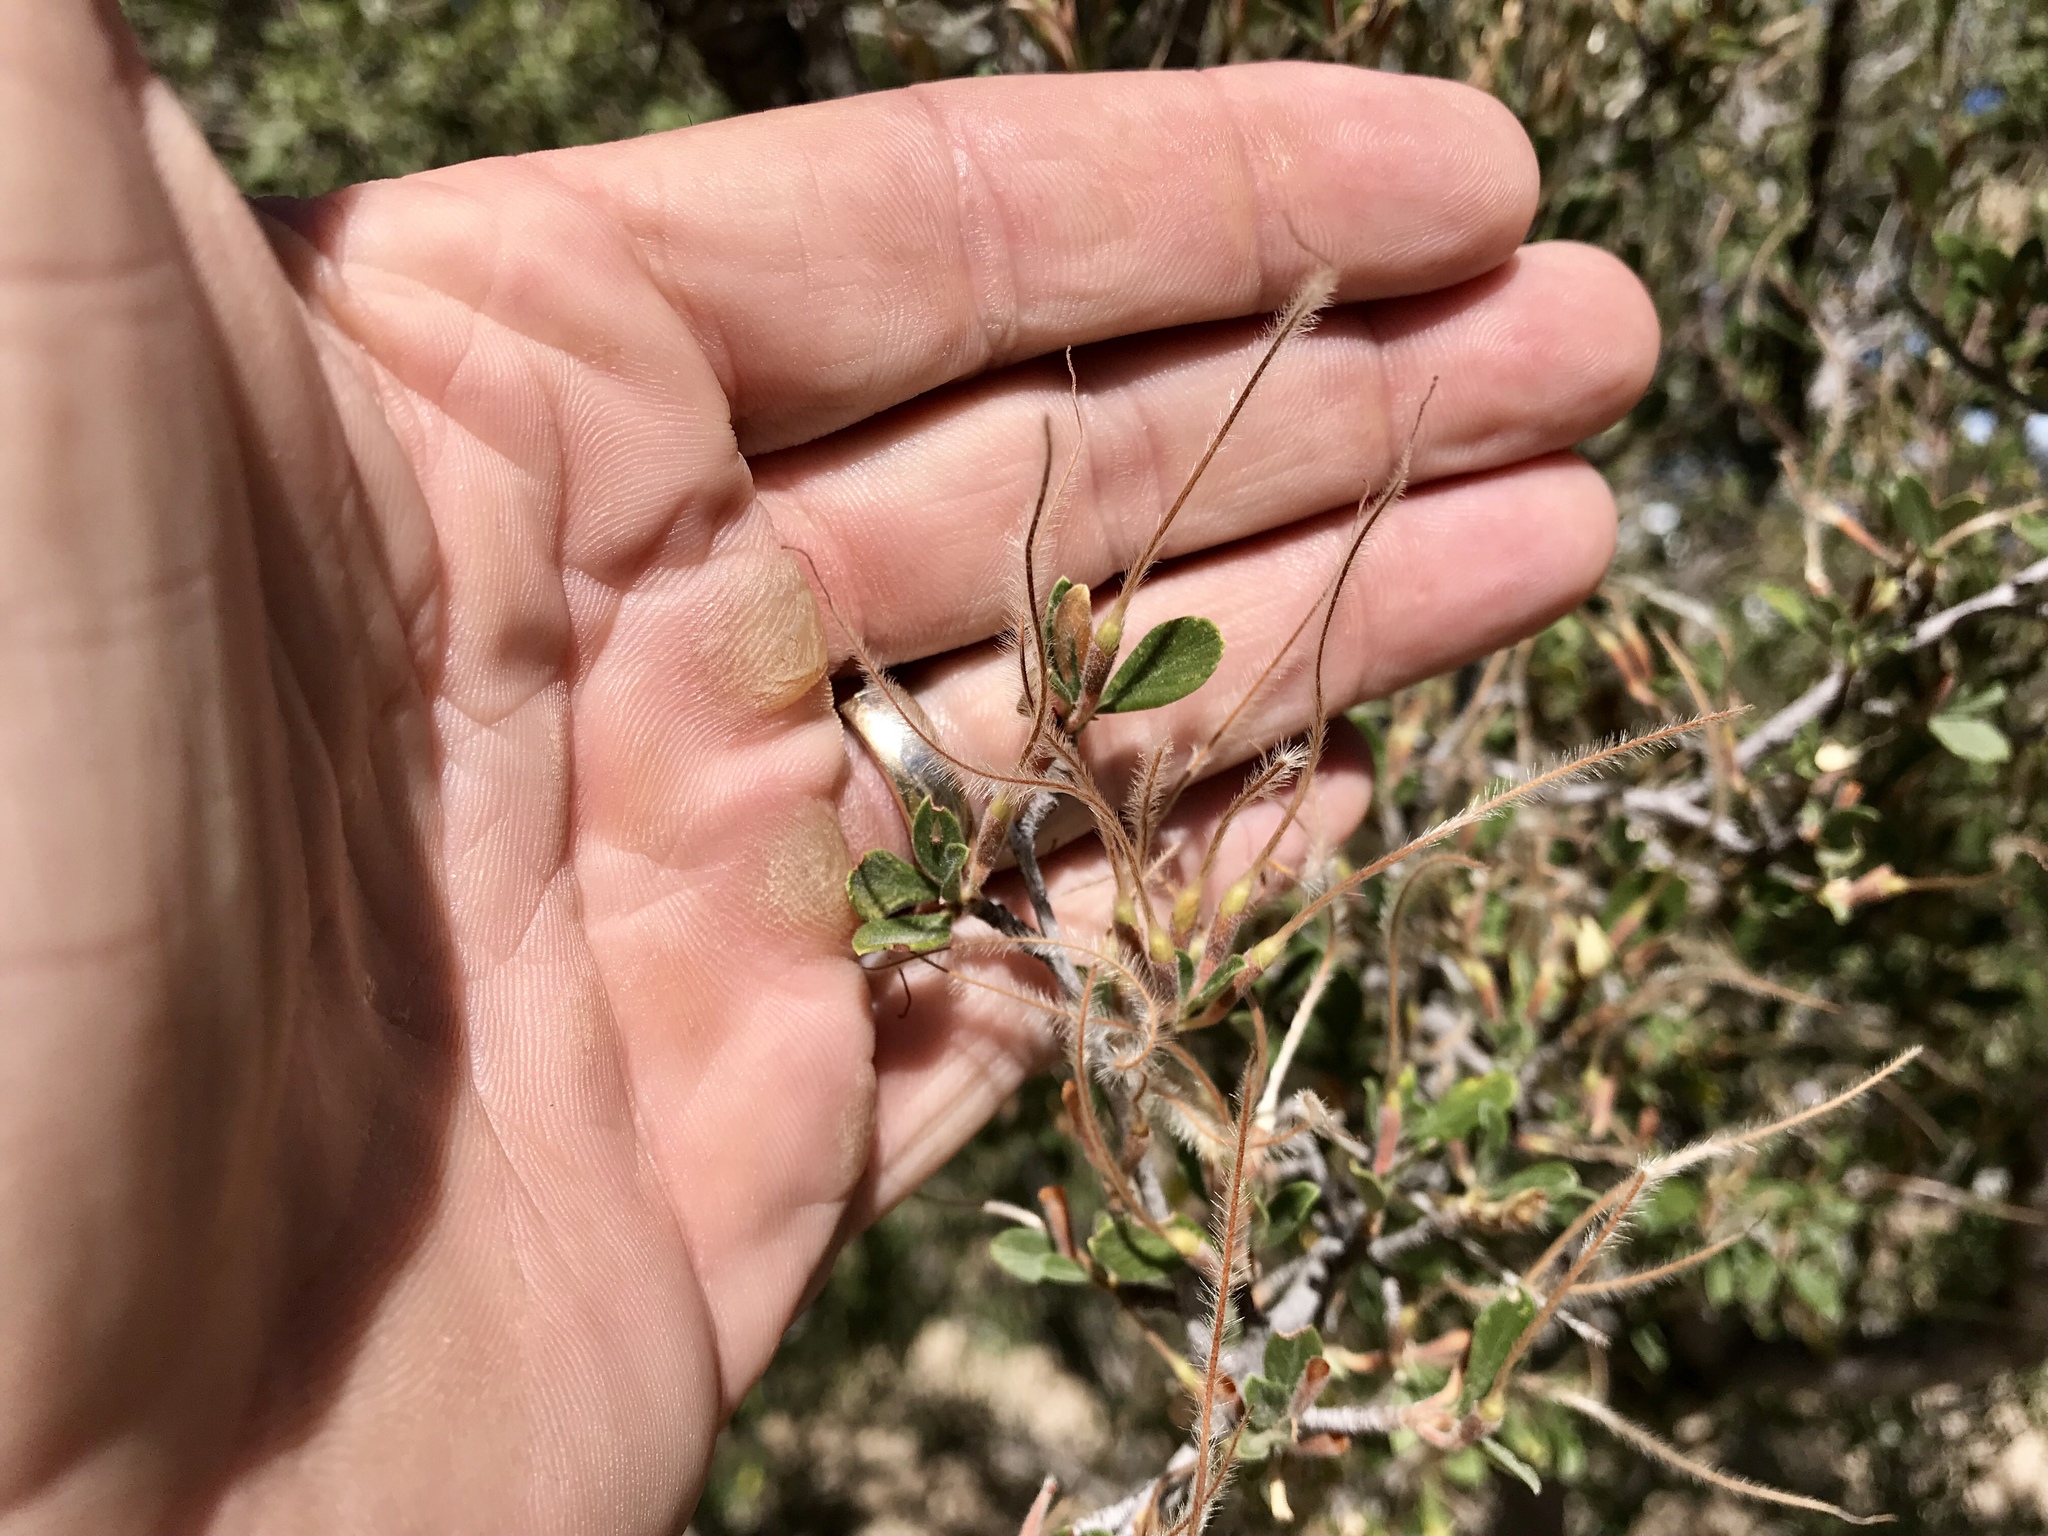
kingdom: Plantae
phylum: Tracheophyta
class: Magnoliopsida
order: Rosales
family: Rosaceae
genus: Cercocarpus
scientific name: Cercocarpus betuloides
